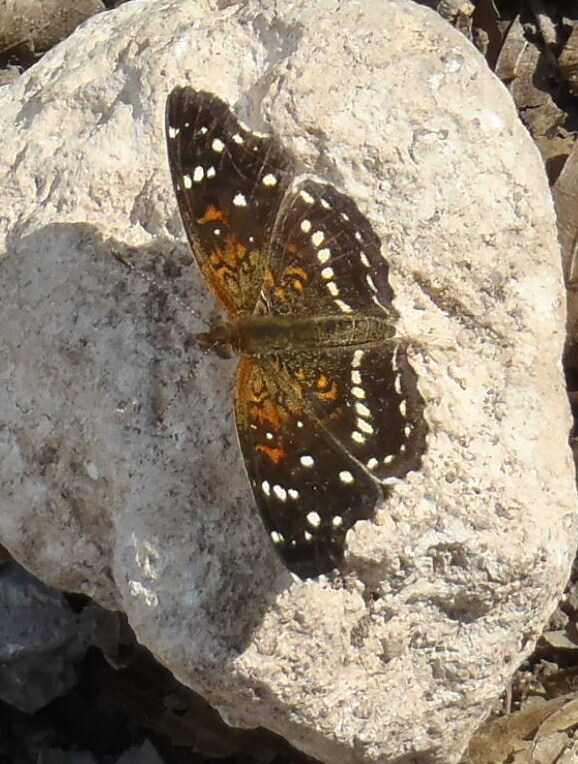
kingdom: Animalia
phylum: Arthropoda
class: Insecta
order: Lepidoptera
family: Nymphalidae
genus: Anthanassa
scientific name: Anthanassa texana
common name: Texan crescent
